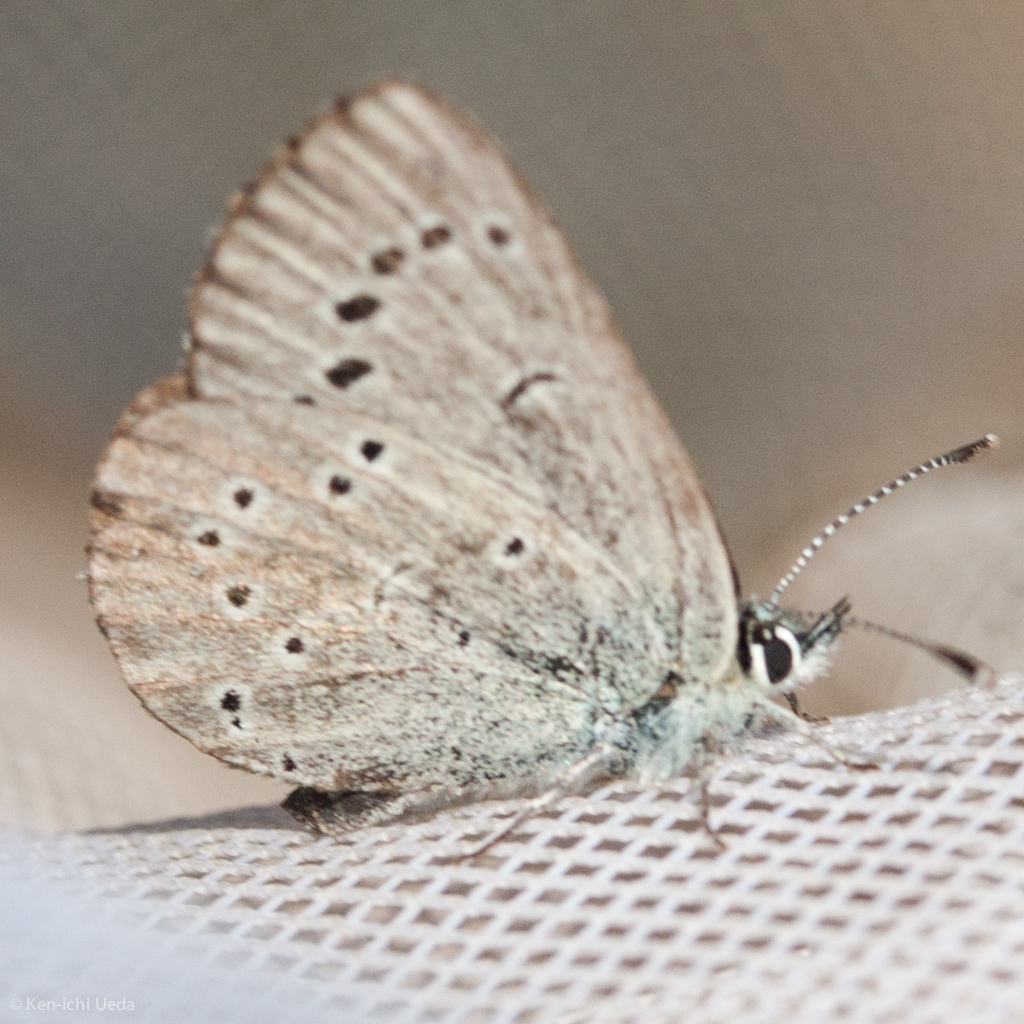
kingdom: Animalia
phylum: Arthropoda
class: Insecta
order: Lepidoptera
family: Lycaenidae
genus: Glaucopsyche
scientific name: Glaucopsyche lygdamus
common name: Silvery blue
